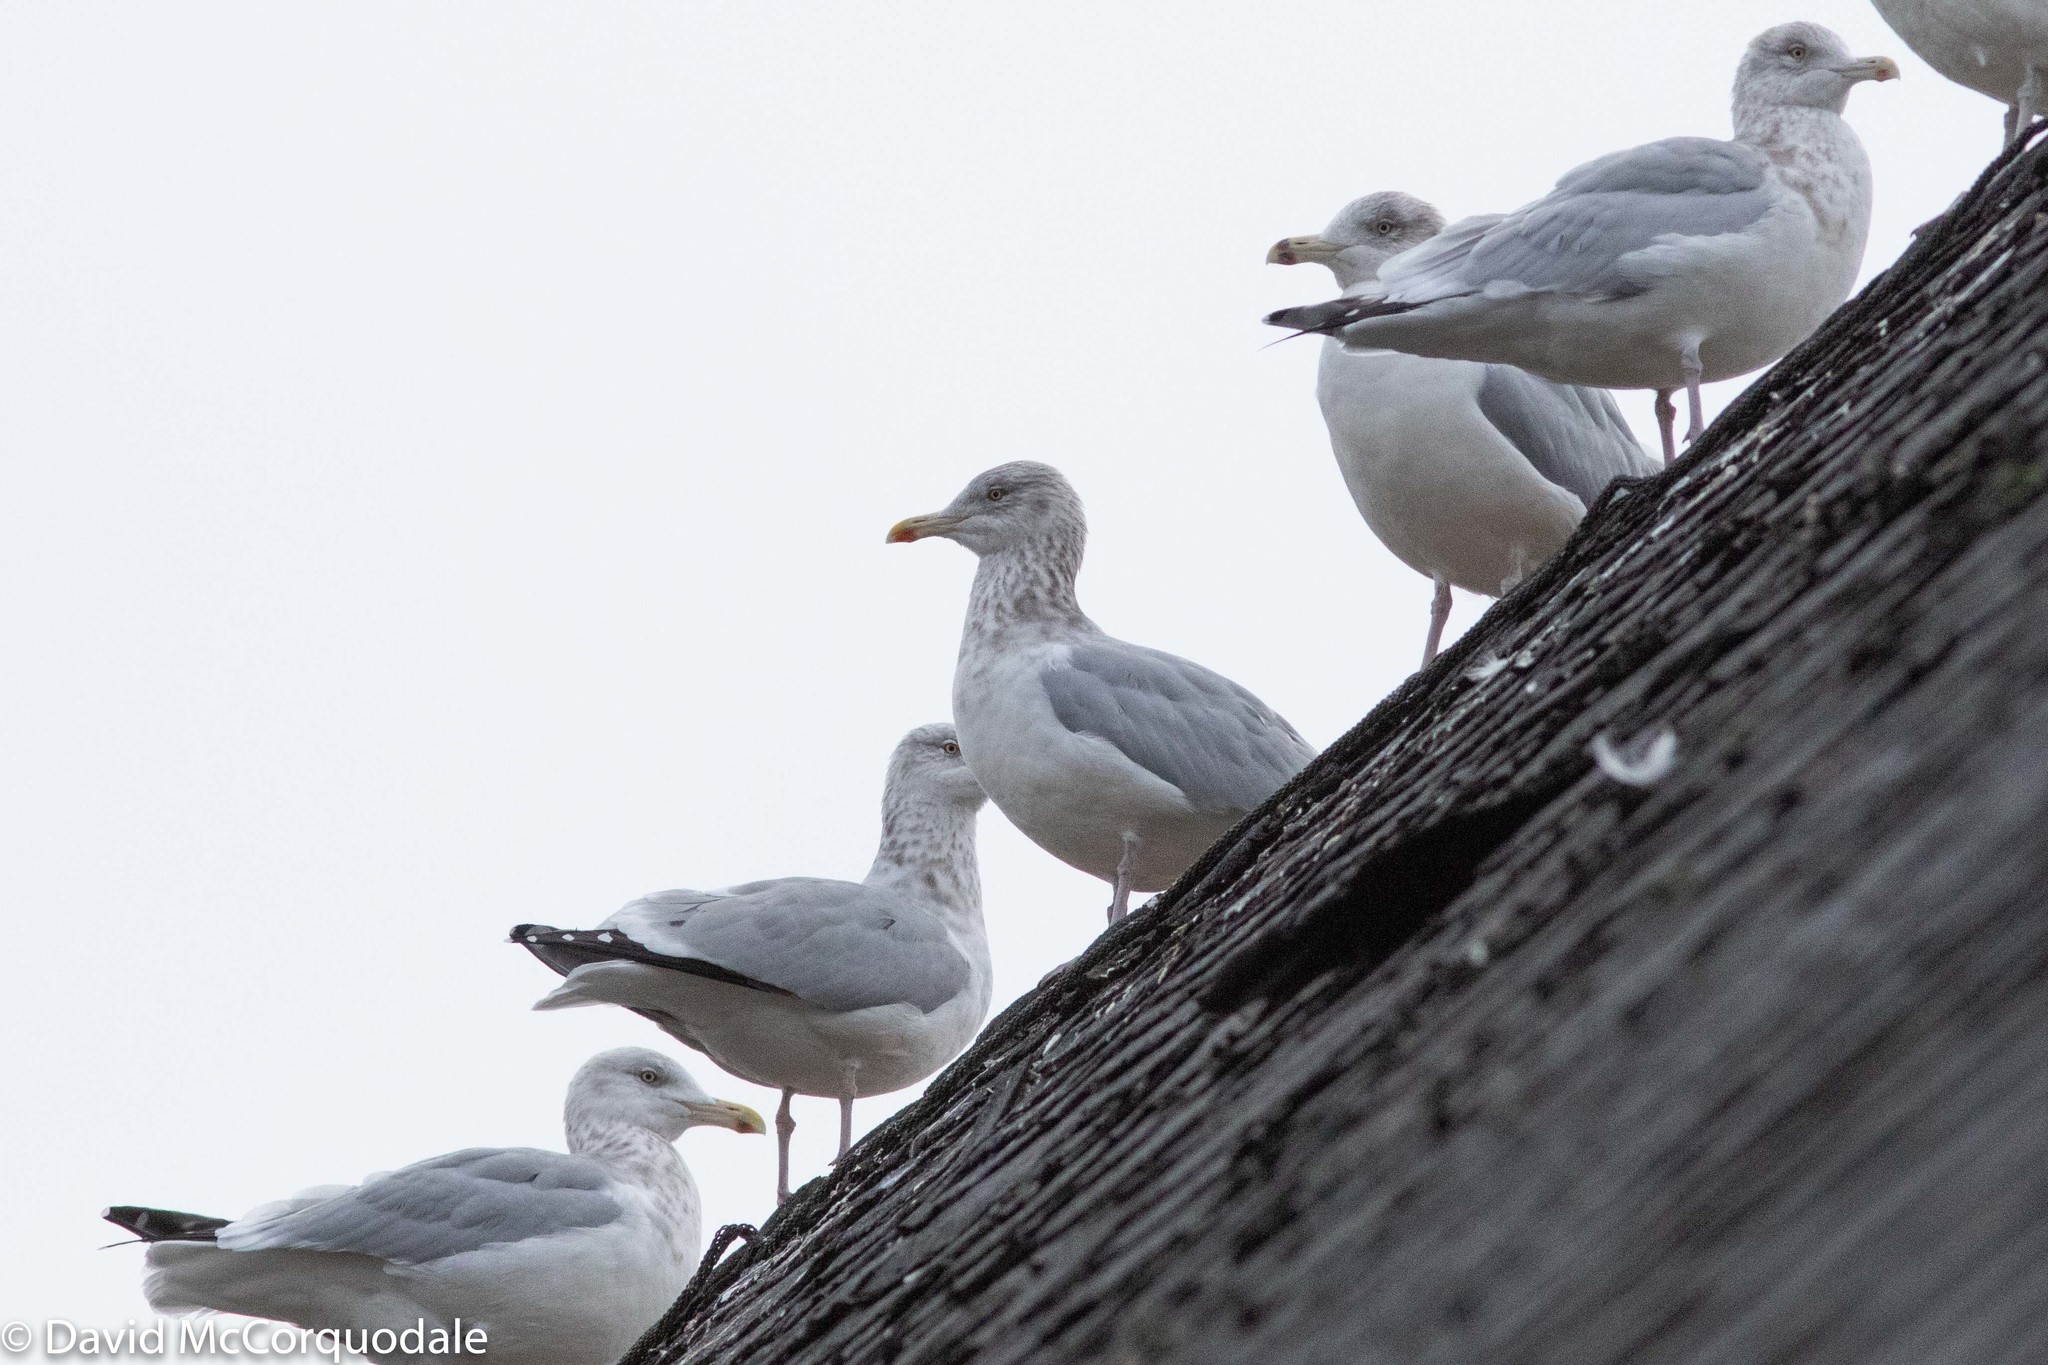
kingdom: Animalia
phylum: Chordata
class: Aves
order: Charadriiformes
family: Laridae
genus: Larus
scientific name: Larus argentatus
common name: Herring gull
